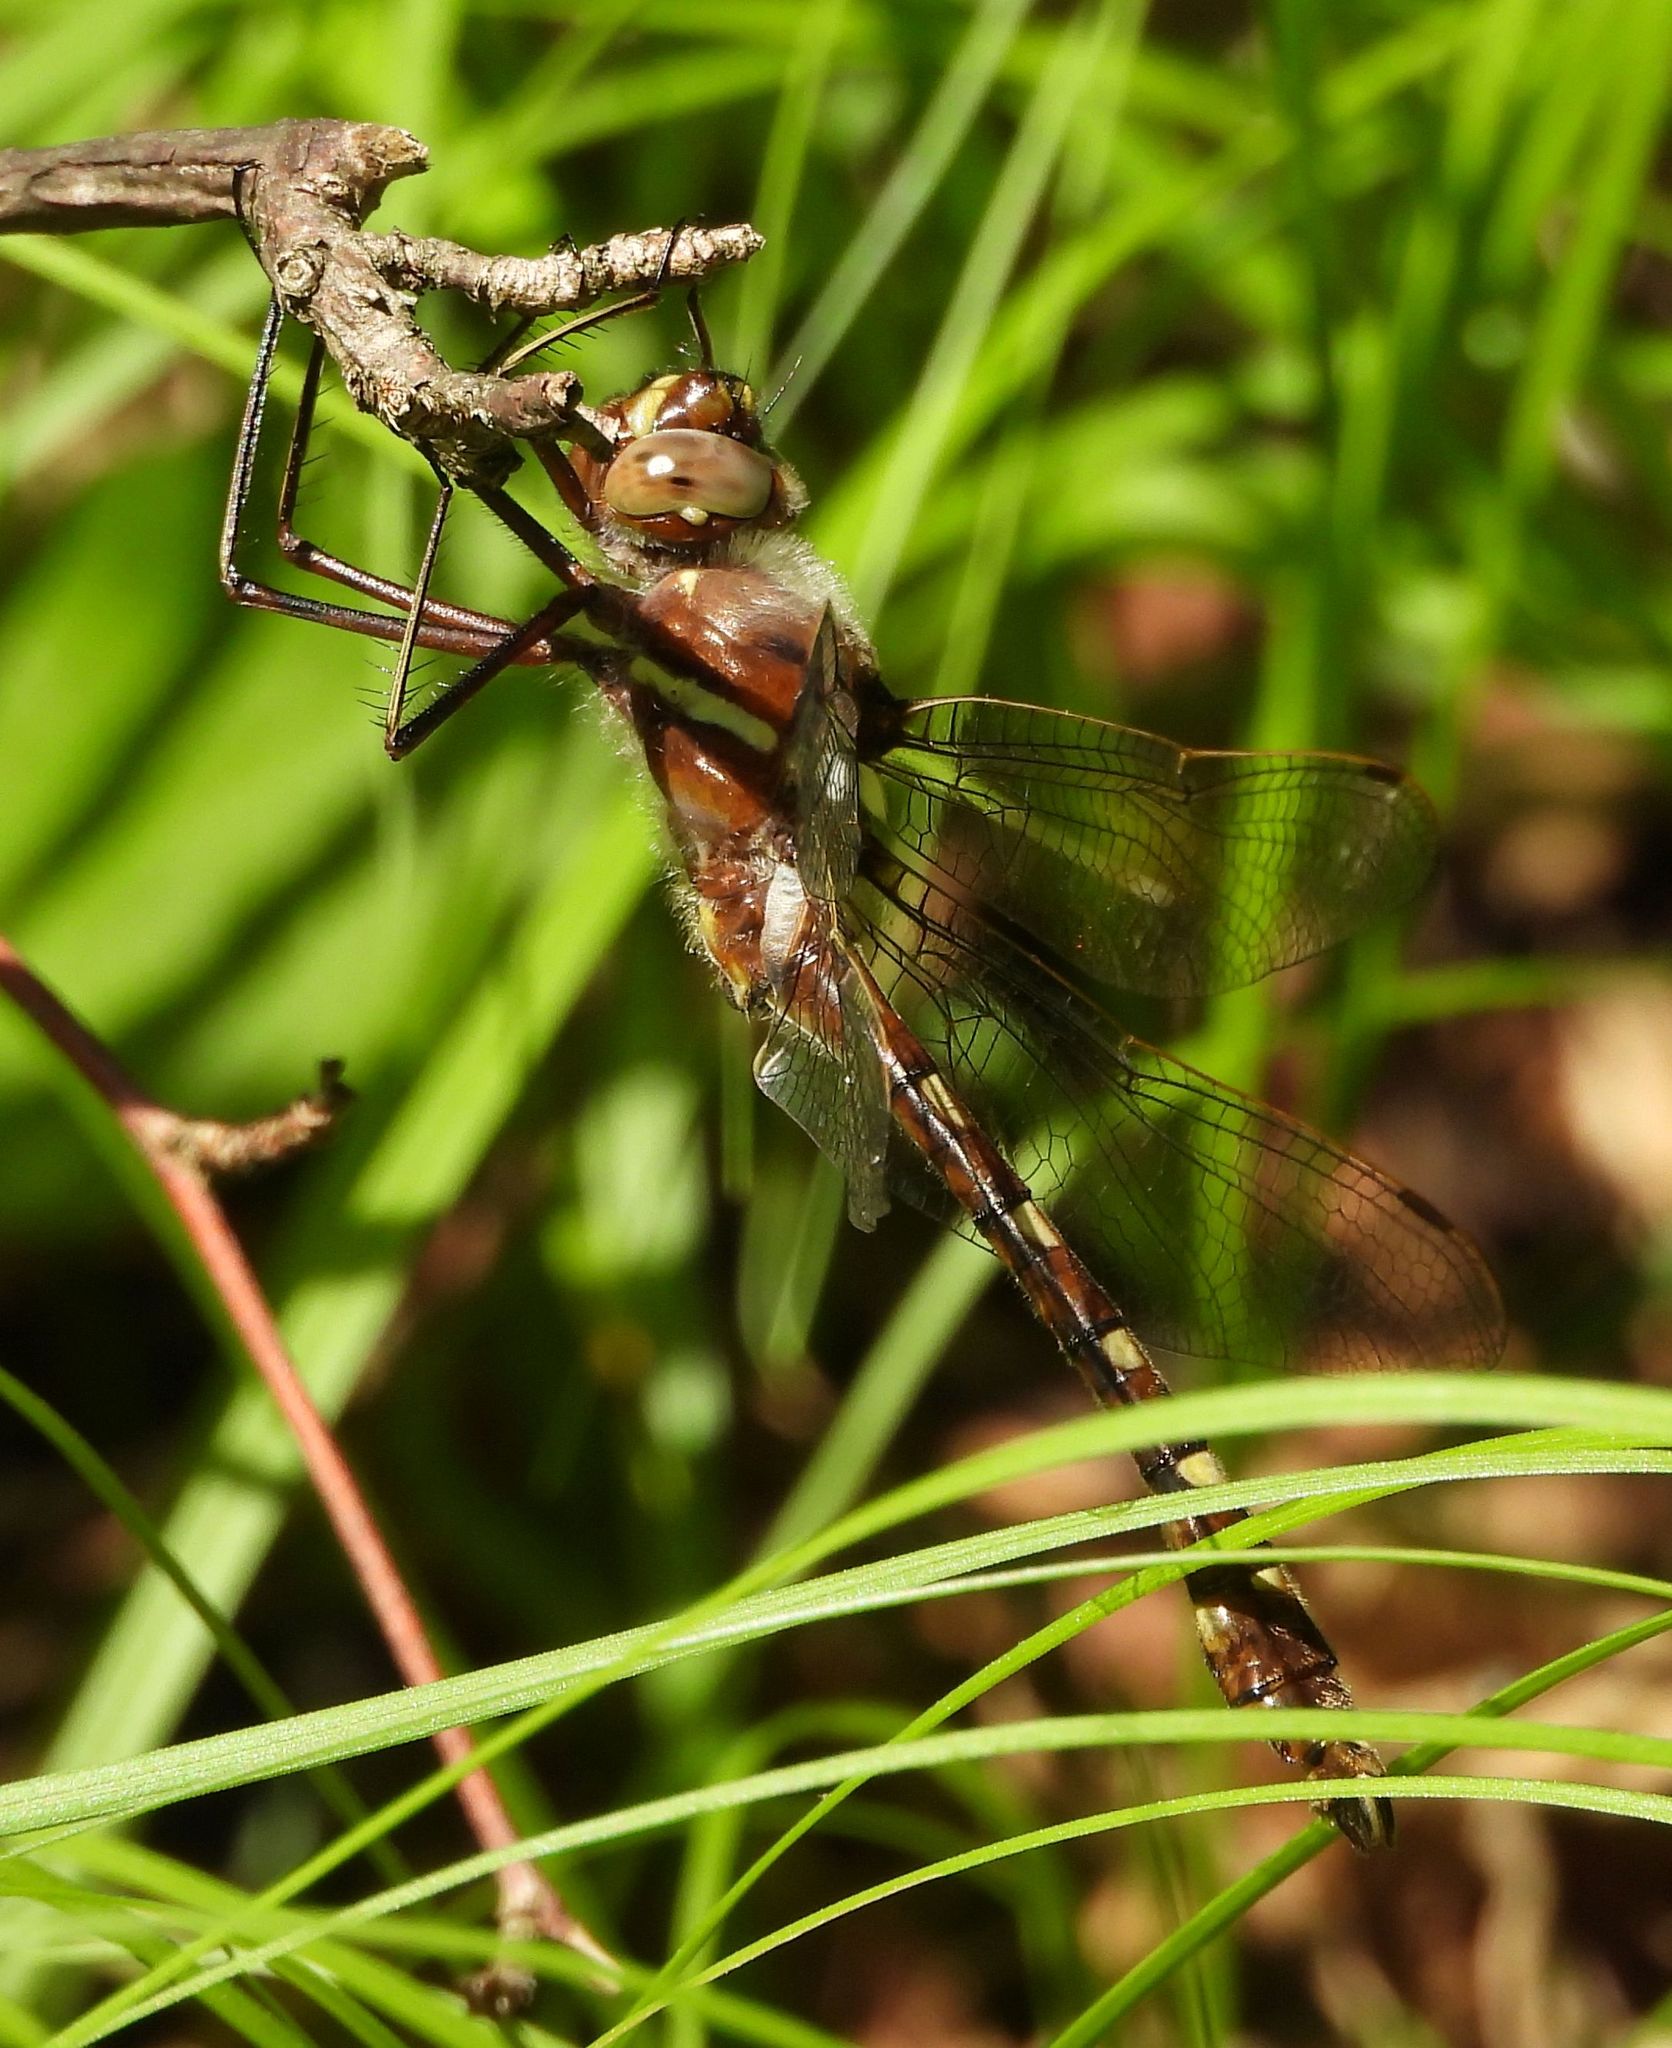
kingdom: Animalia
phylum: Arthropoda
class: Insecta
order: Odonata
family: Macromiidae
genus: Didymops
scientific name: Didymops transversa
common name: Stream cruiser
